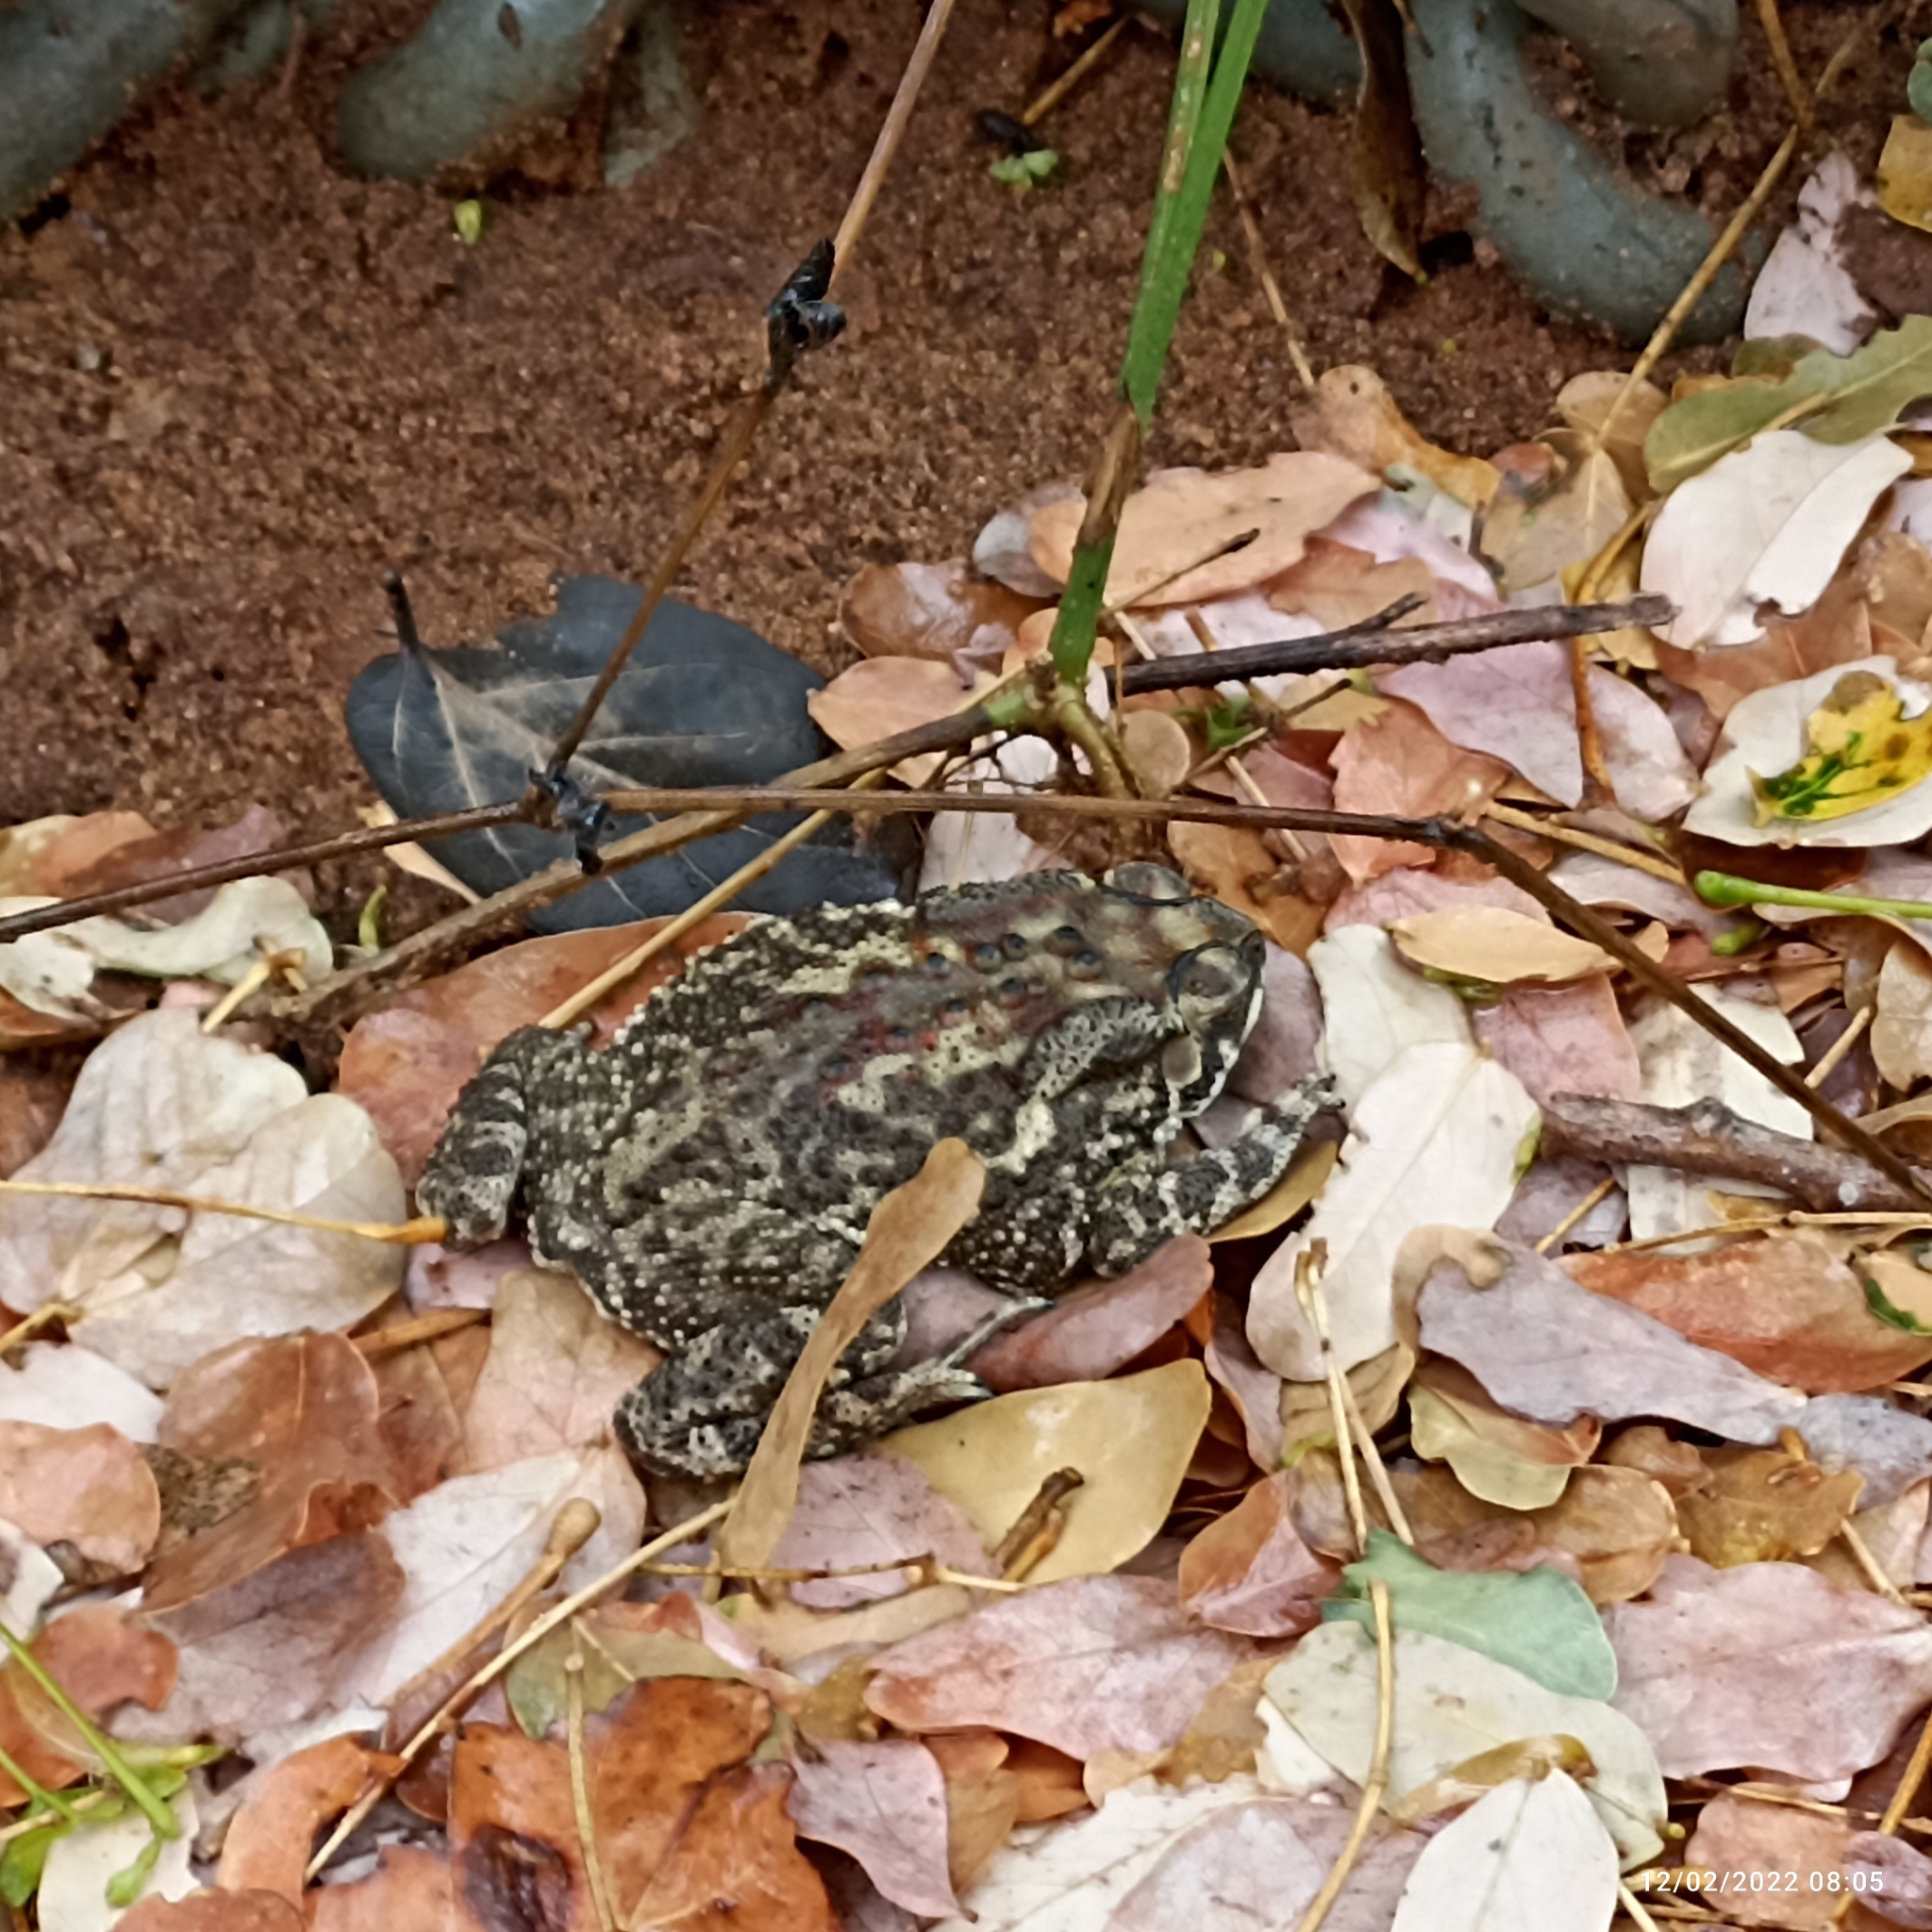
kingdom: Animalia
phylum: Chordata
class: Amphibia
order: Anura
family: Bufonidae
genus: Duttaphrynus
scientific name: Duttaphrynus melanostictus
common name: Common sunda toad
